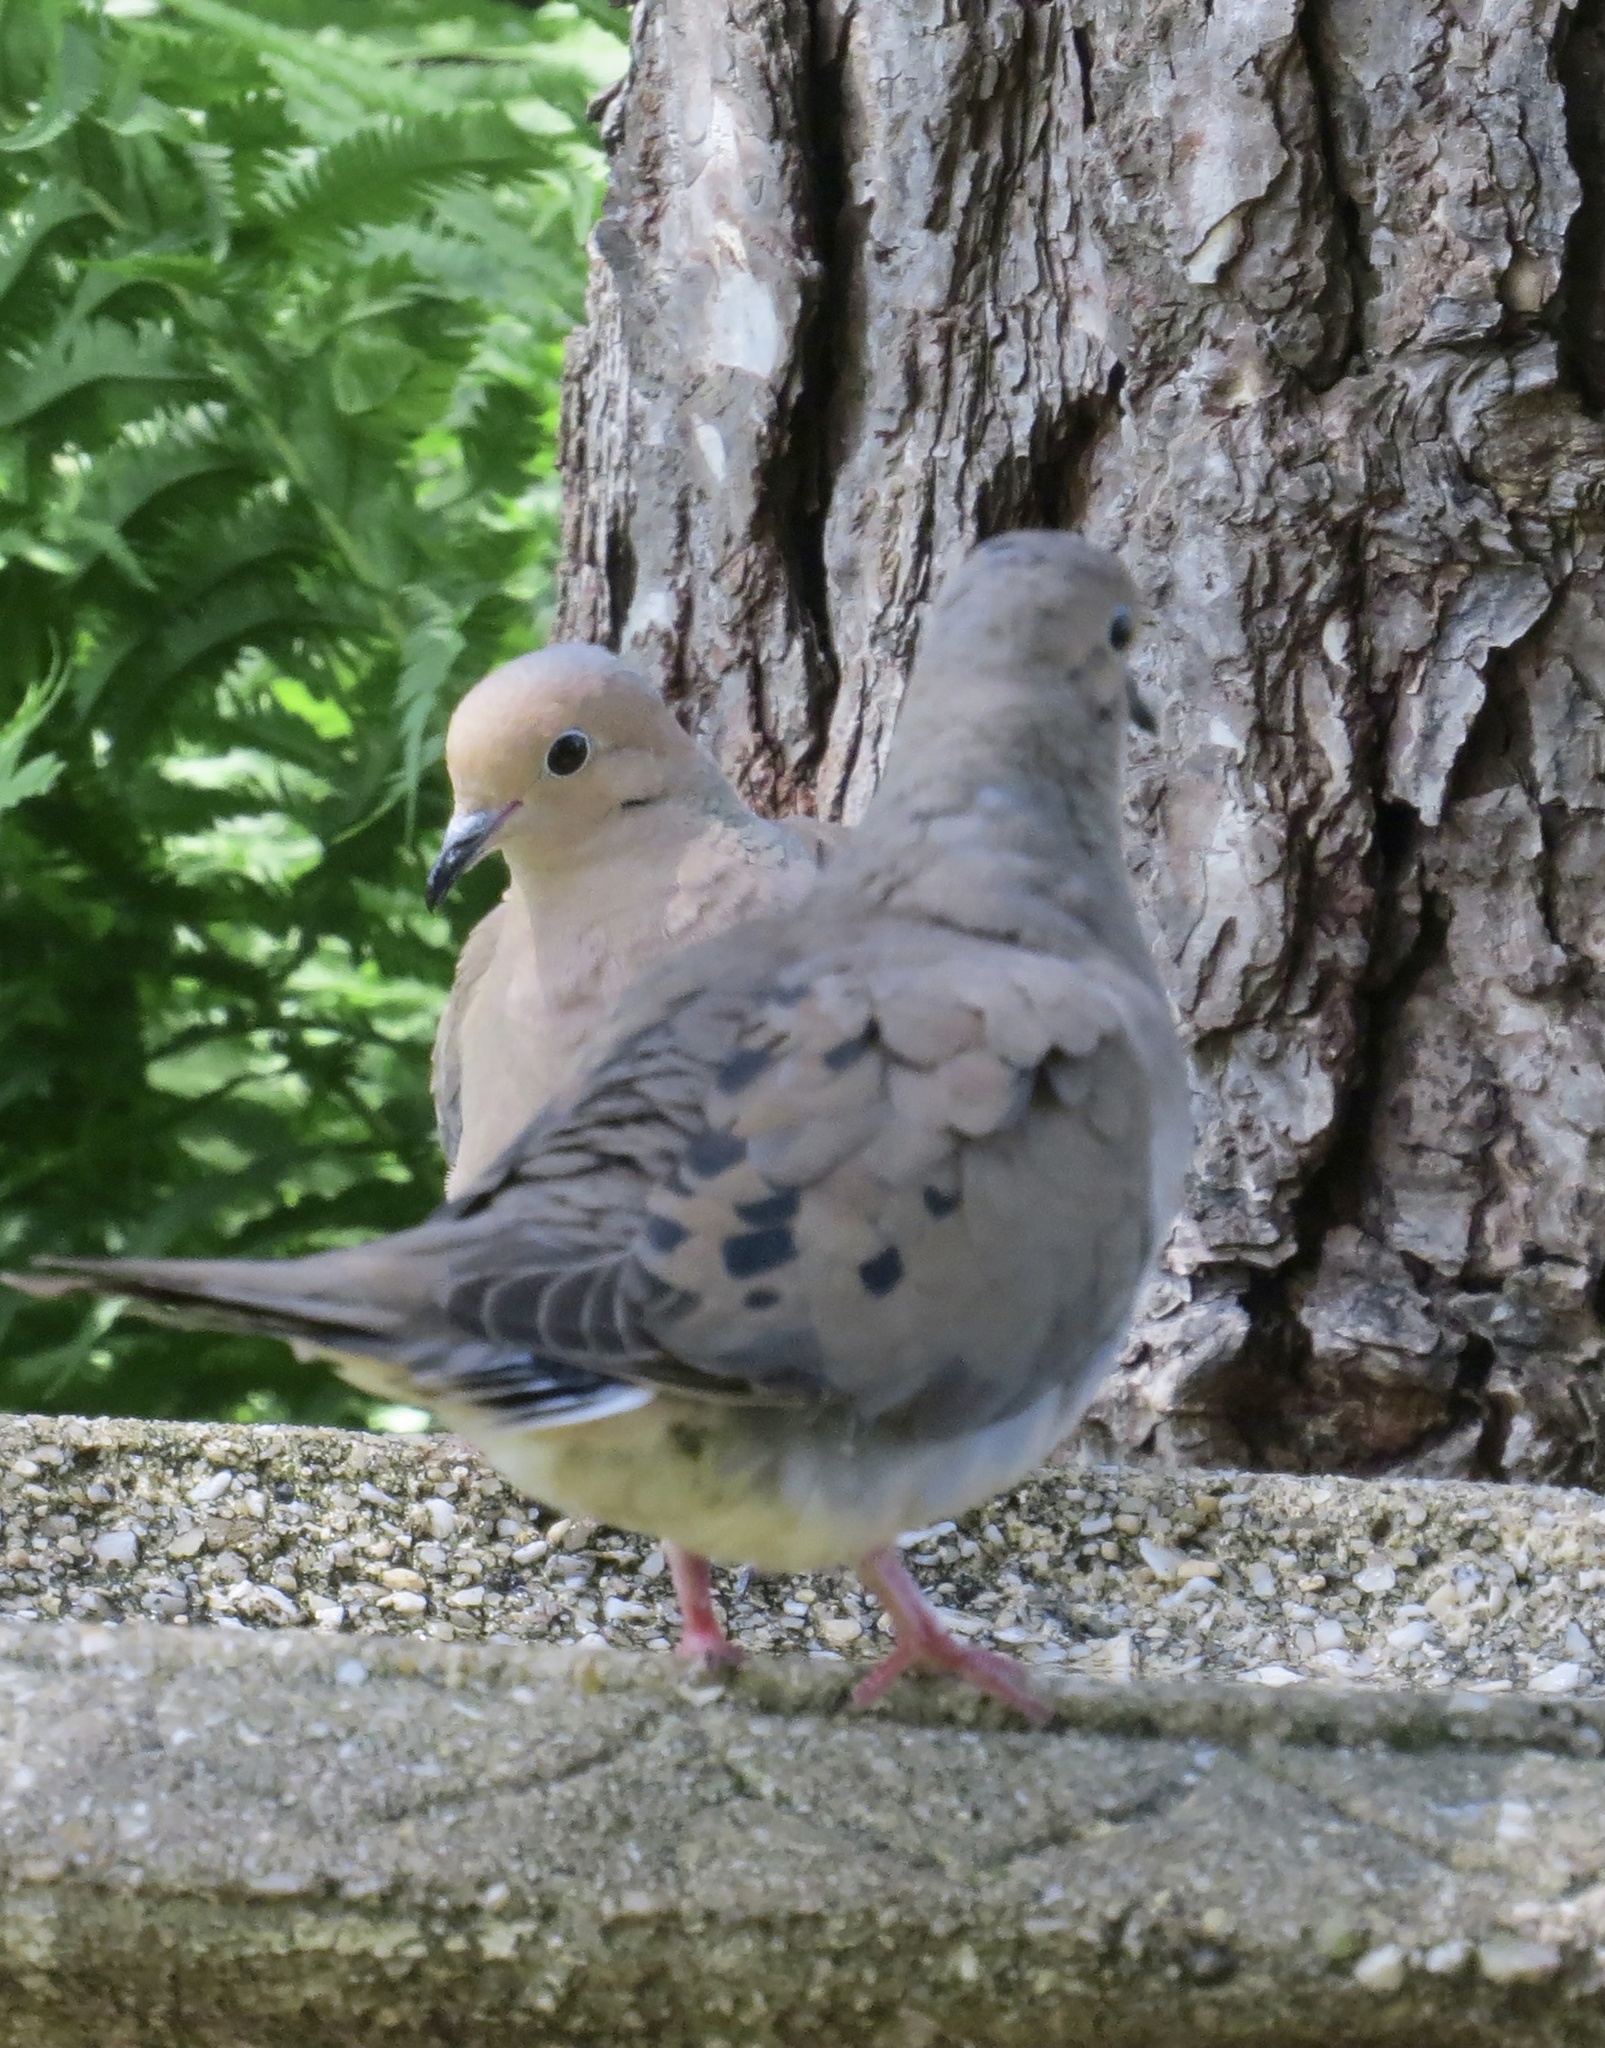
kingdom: Animalia
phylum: Chordata
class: Aves
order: Columbiformes
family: Columbidae
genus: Zenaida
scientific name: Zenaida macroura
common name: Mourning dove
